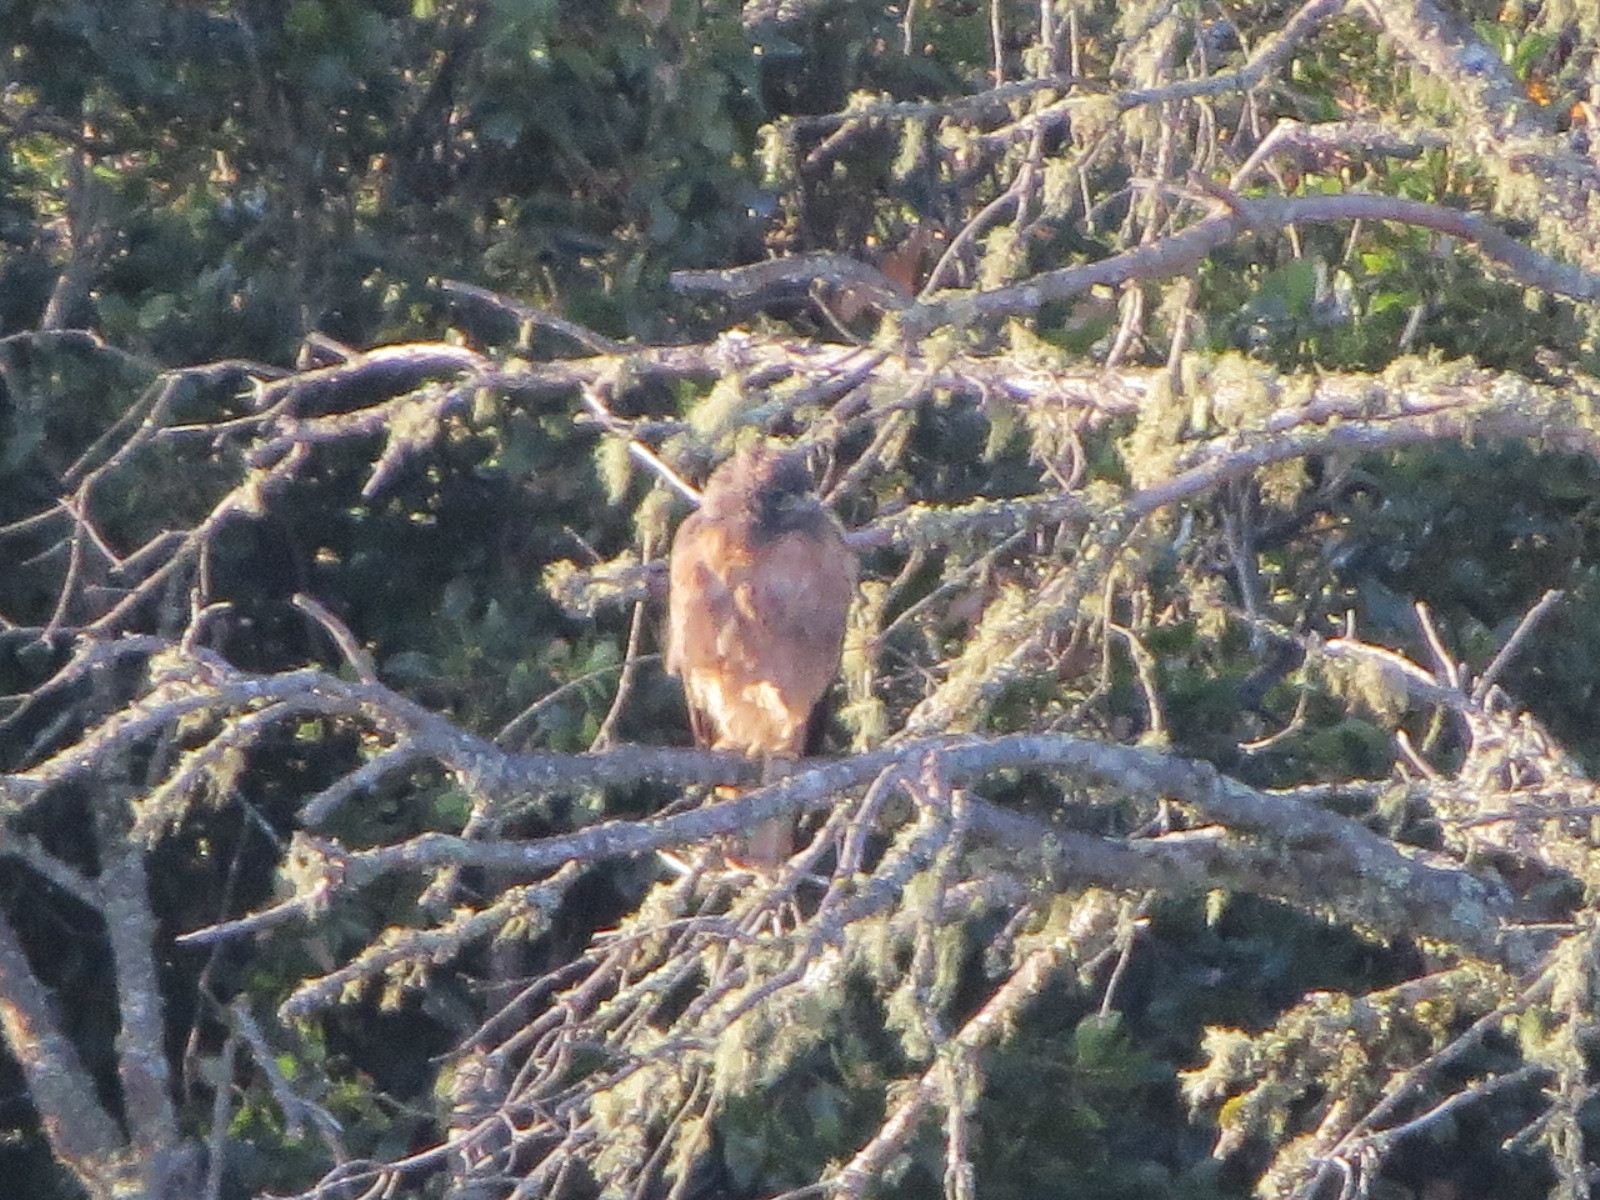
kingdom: Animalia
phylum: Chordata
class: Aves
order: Accipitriformes
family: Accipitridae
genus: Buteo
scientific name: Buteo jamaicensis
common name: Red-tailed hawk
